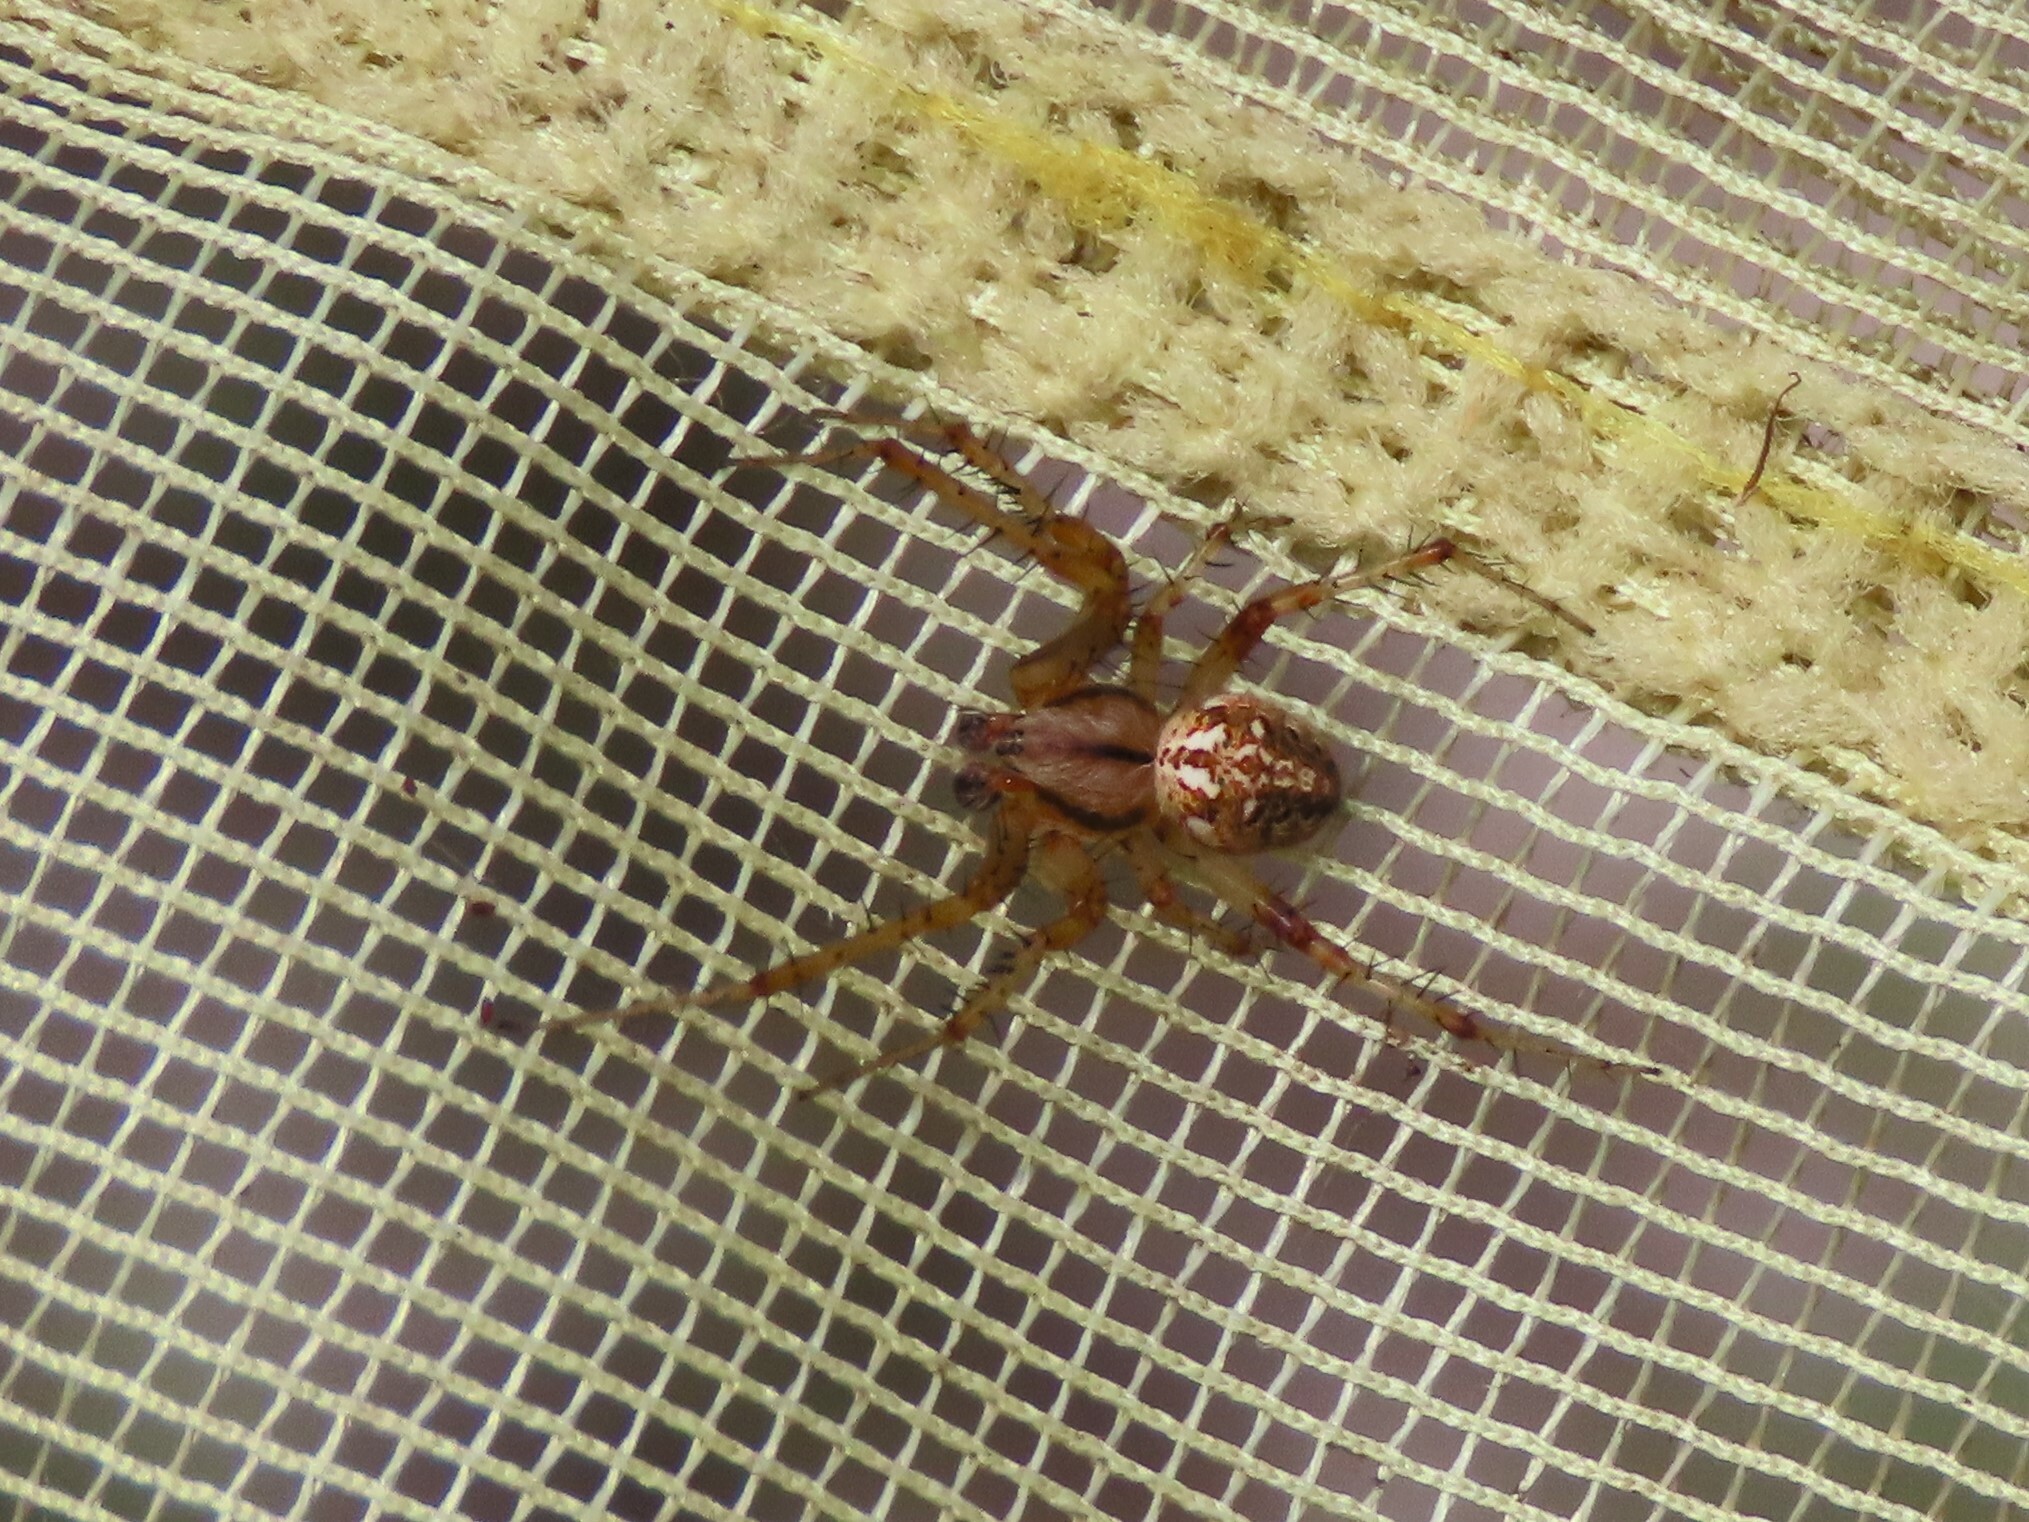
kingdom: Animalia
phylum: Arthropoda
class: Arachnida
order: Araneae
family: Araneidae
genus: Neoscona
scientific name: Neoscona arabesca
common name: Orb weavers
